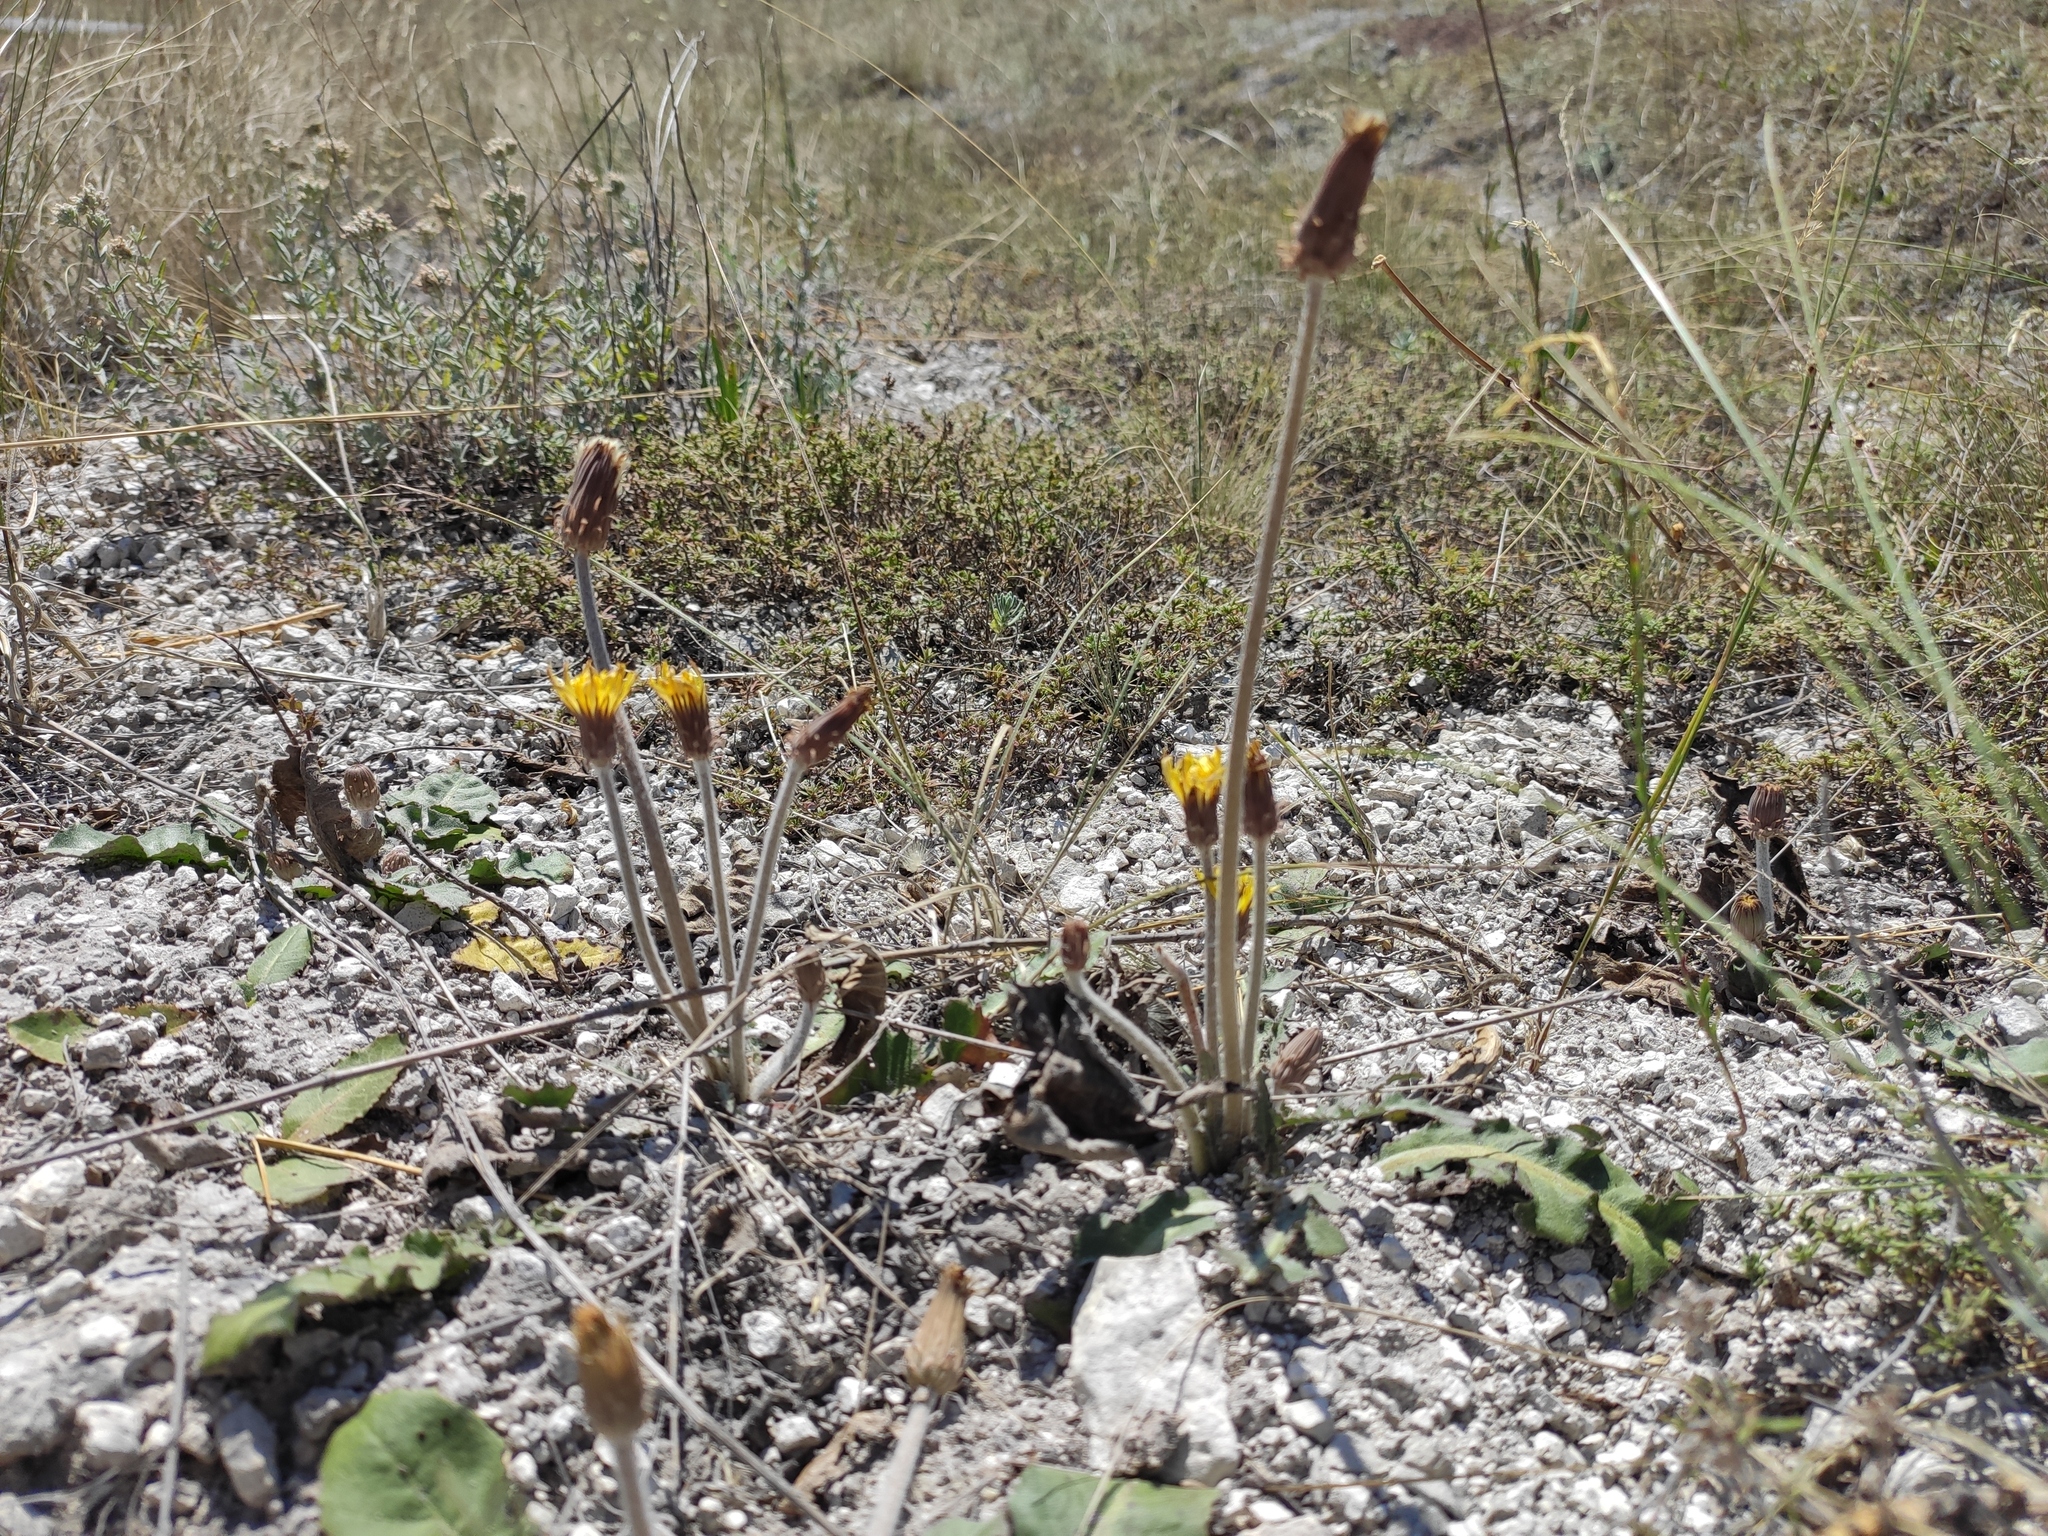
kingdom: Plantae
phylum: Tracheophyta
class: Magnoliopsida
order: Asterales
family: Asteraceae
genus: Taraxacum
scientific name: Taraxacum serotinum
